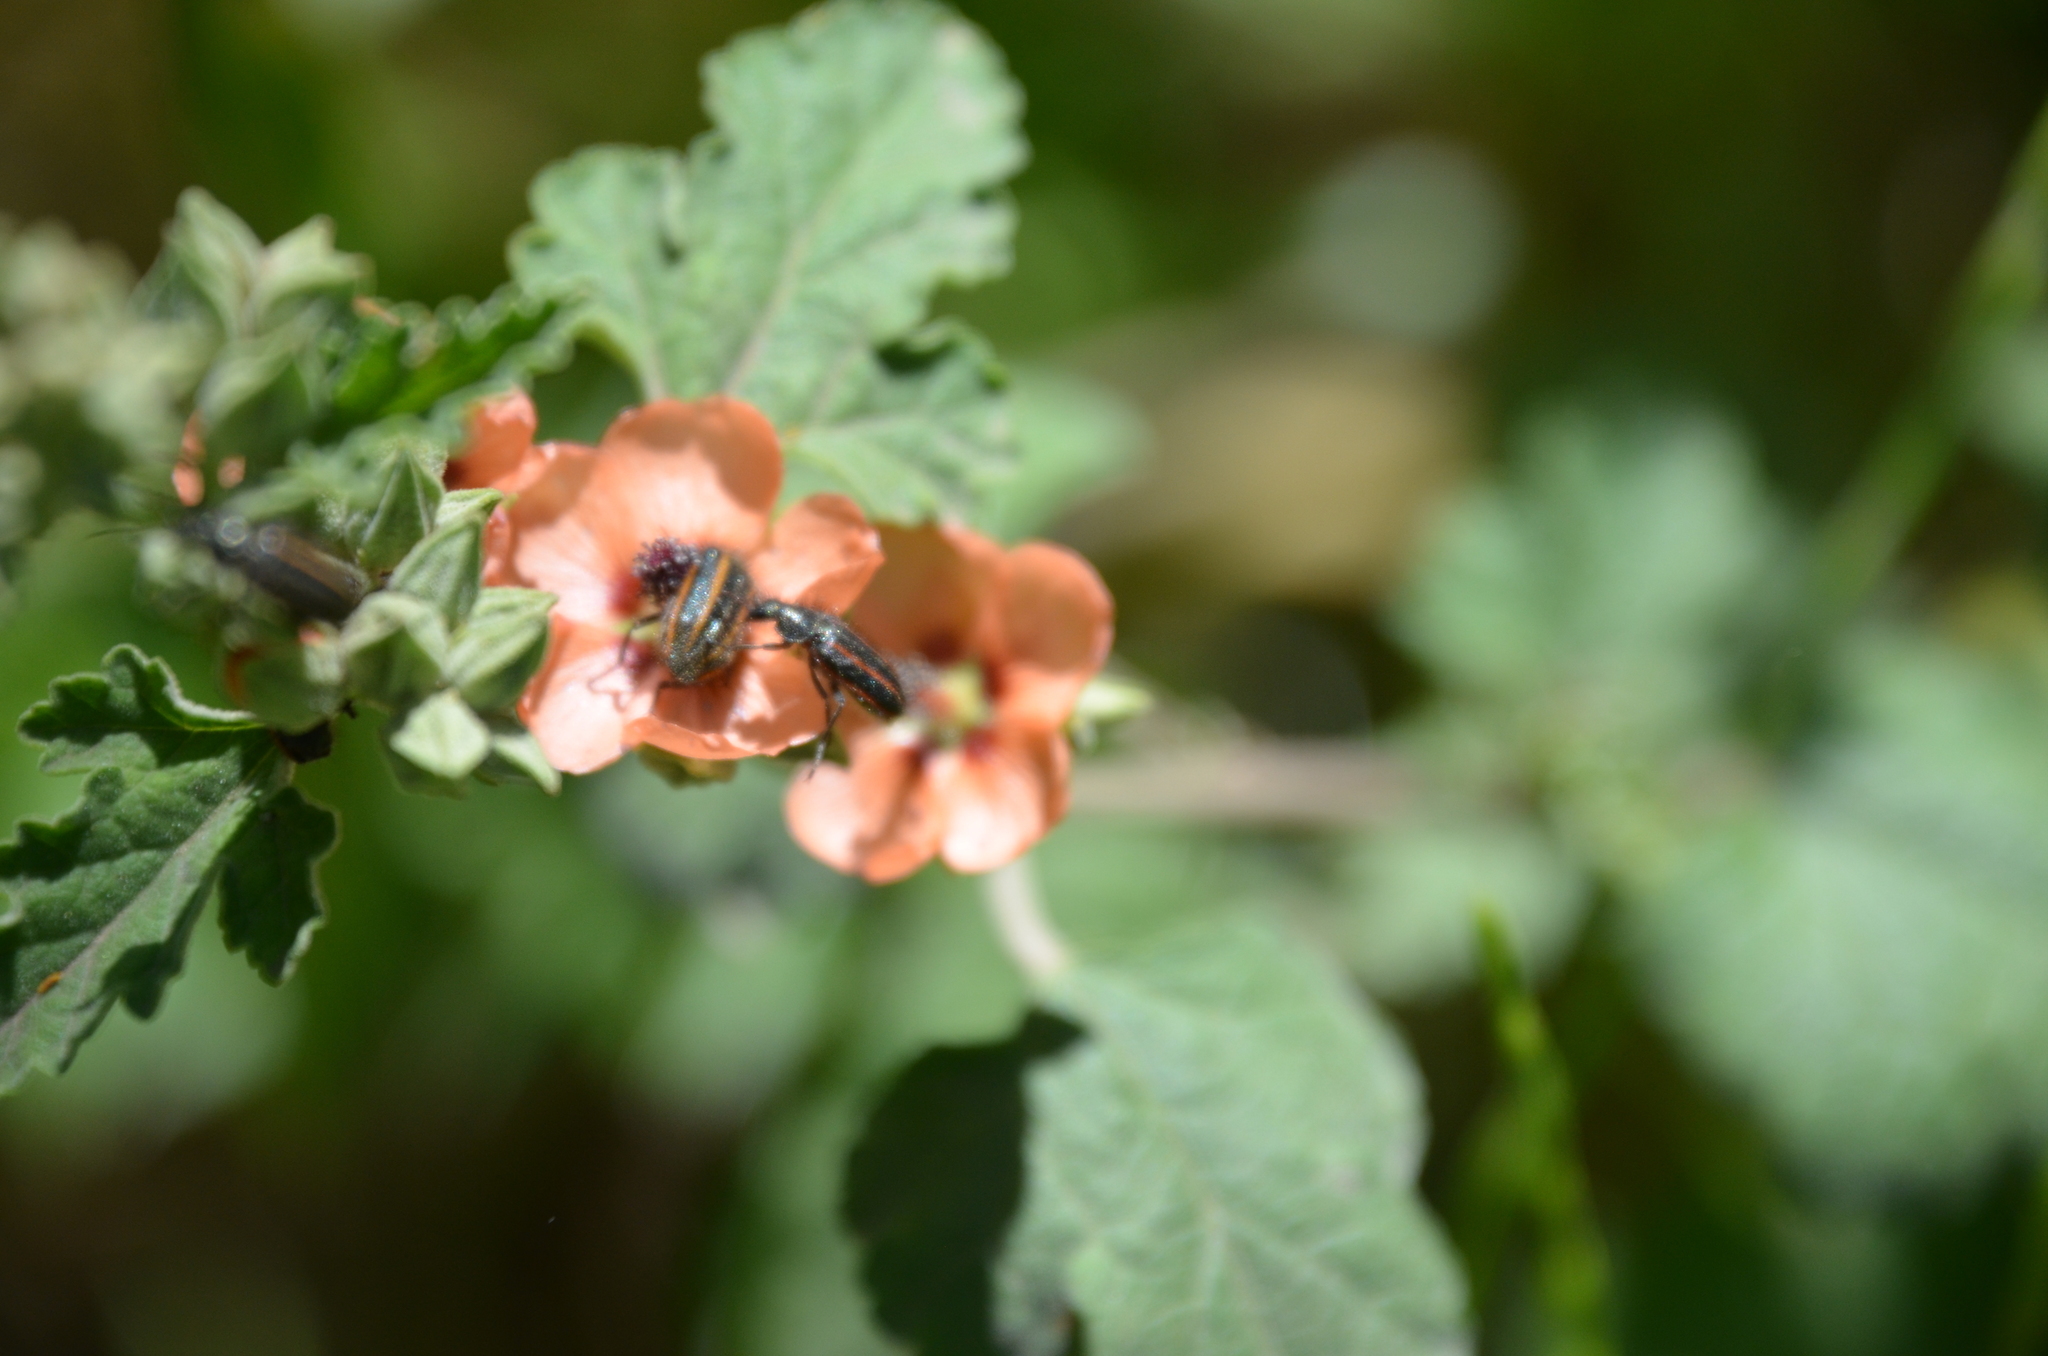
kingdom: Animalia
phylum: Arthropoda
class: Insecta
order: Coleoptera
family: Melyridae
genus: Astylus
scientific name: Astylus
